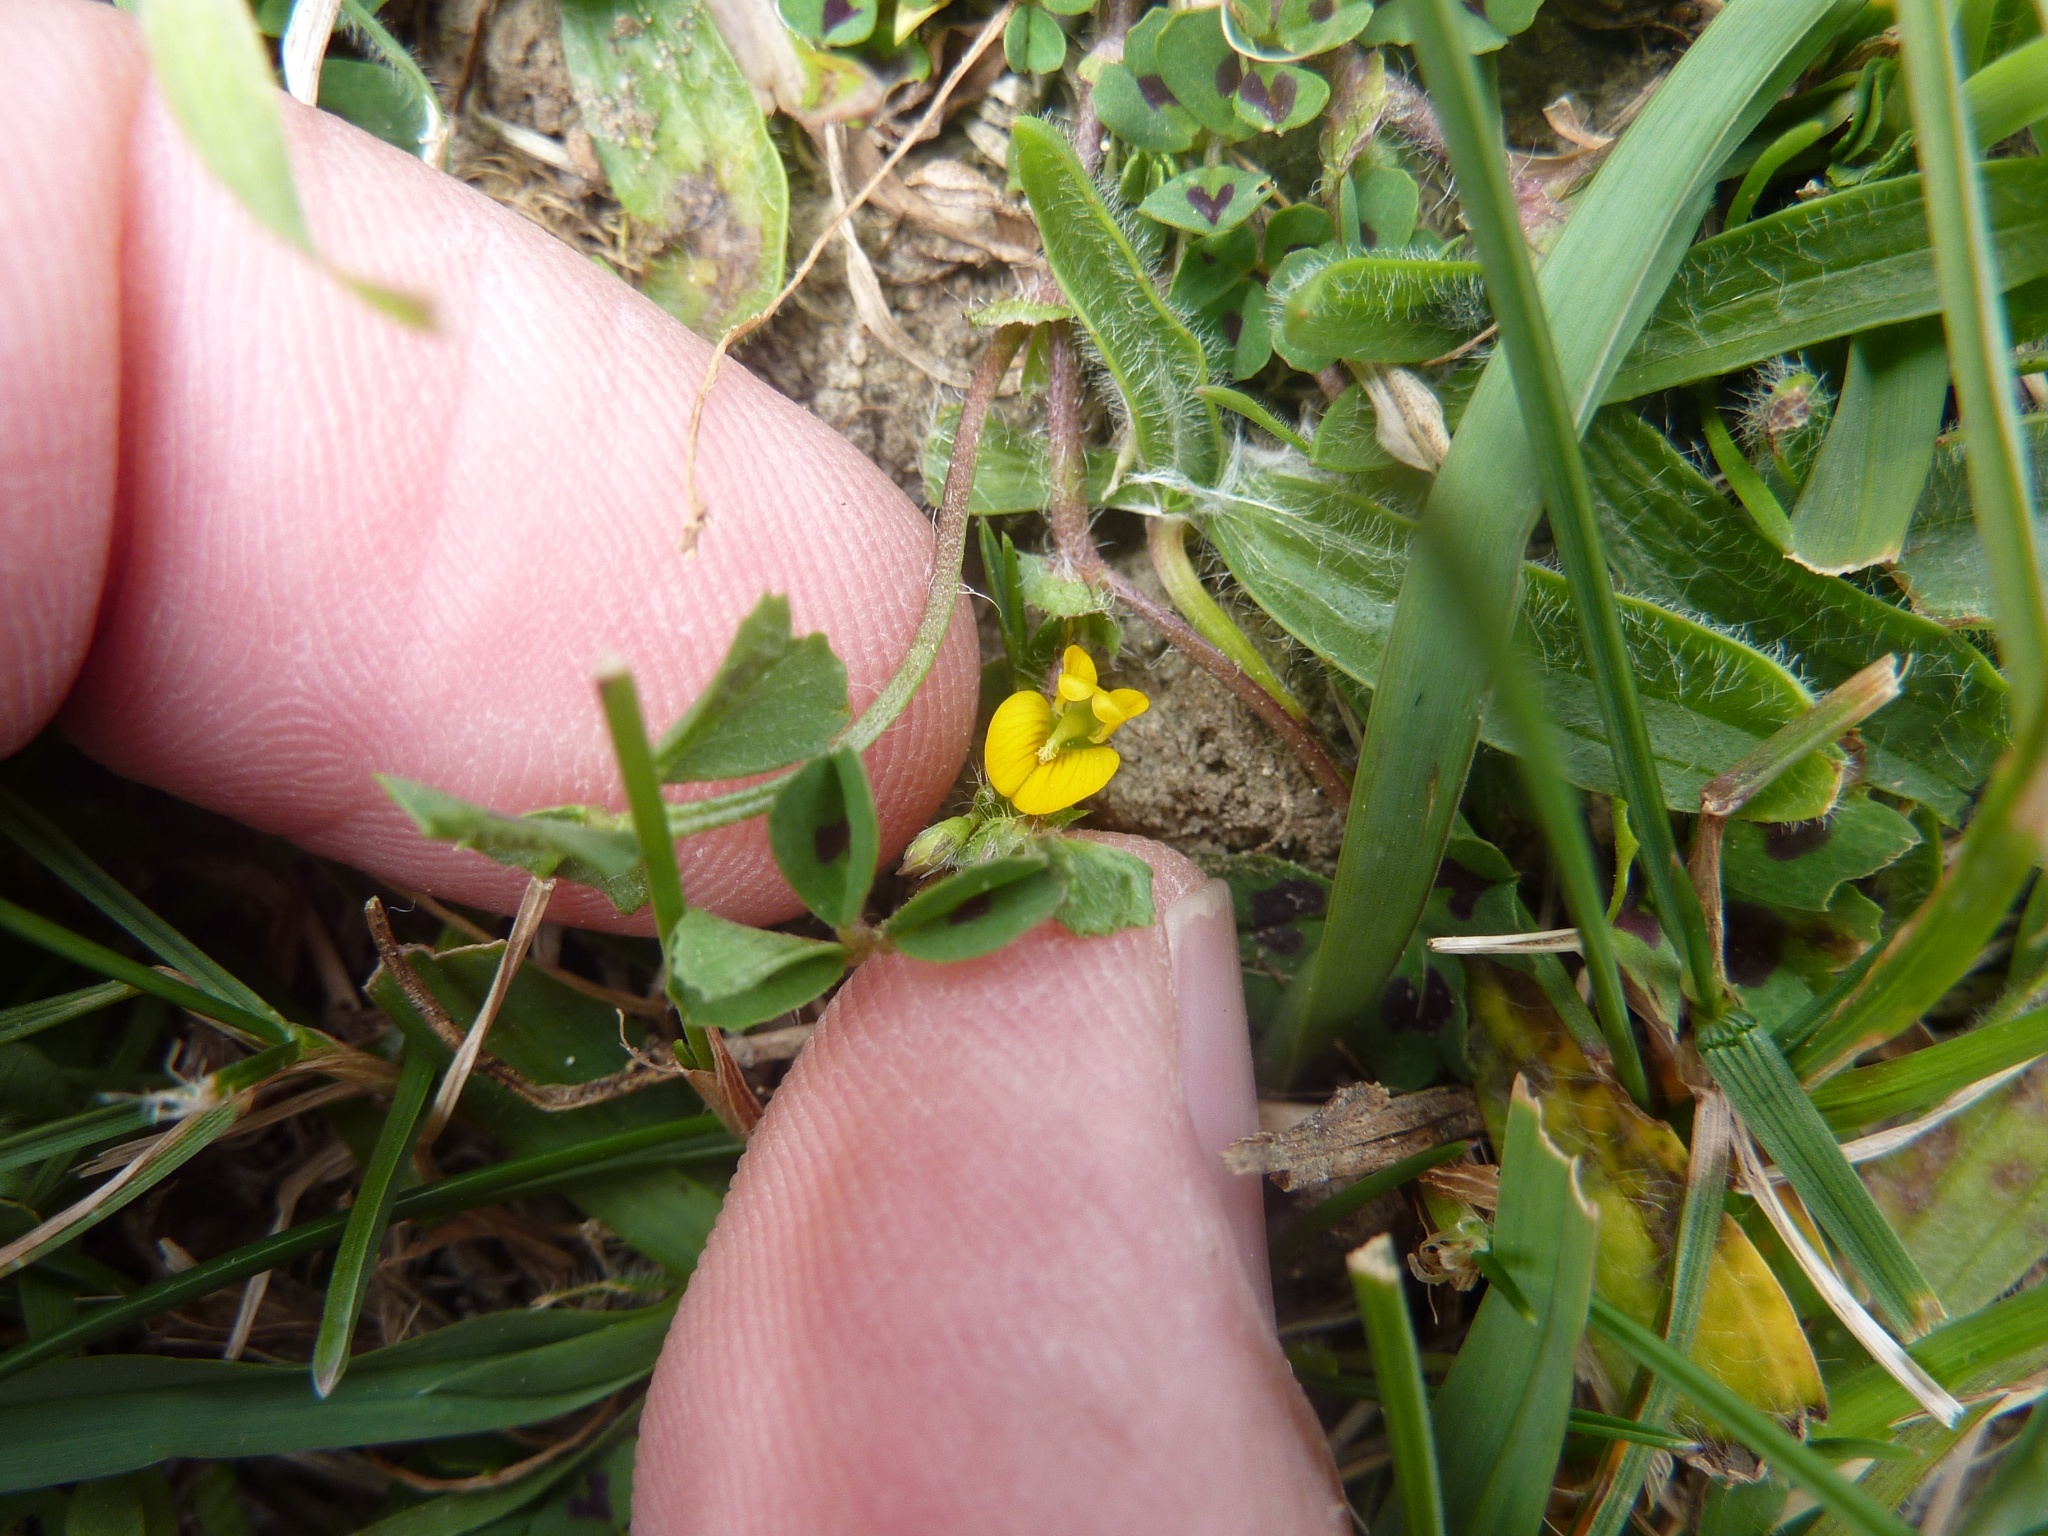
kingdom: Plantae
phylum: Tracheophyta
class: Magnoliopsida
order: Fabales
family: Fabaceae
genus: Medicago
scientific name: Medicago arabica
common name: Spotted medick
